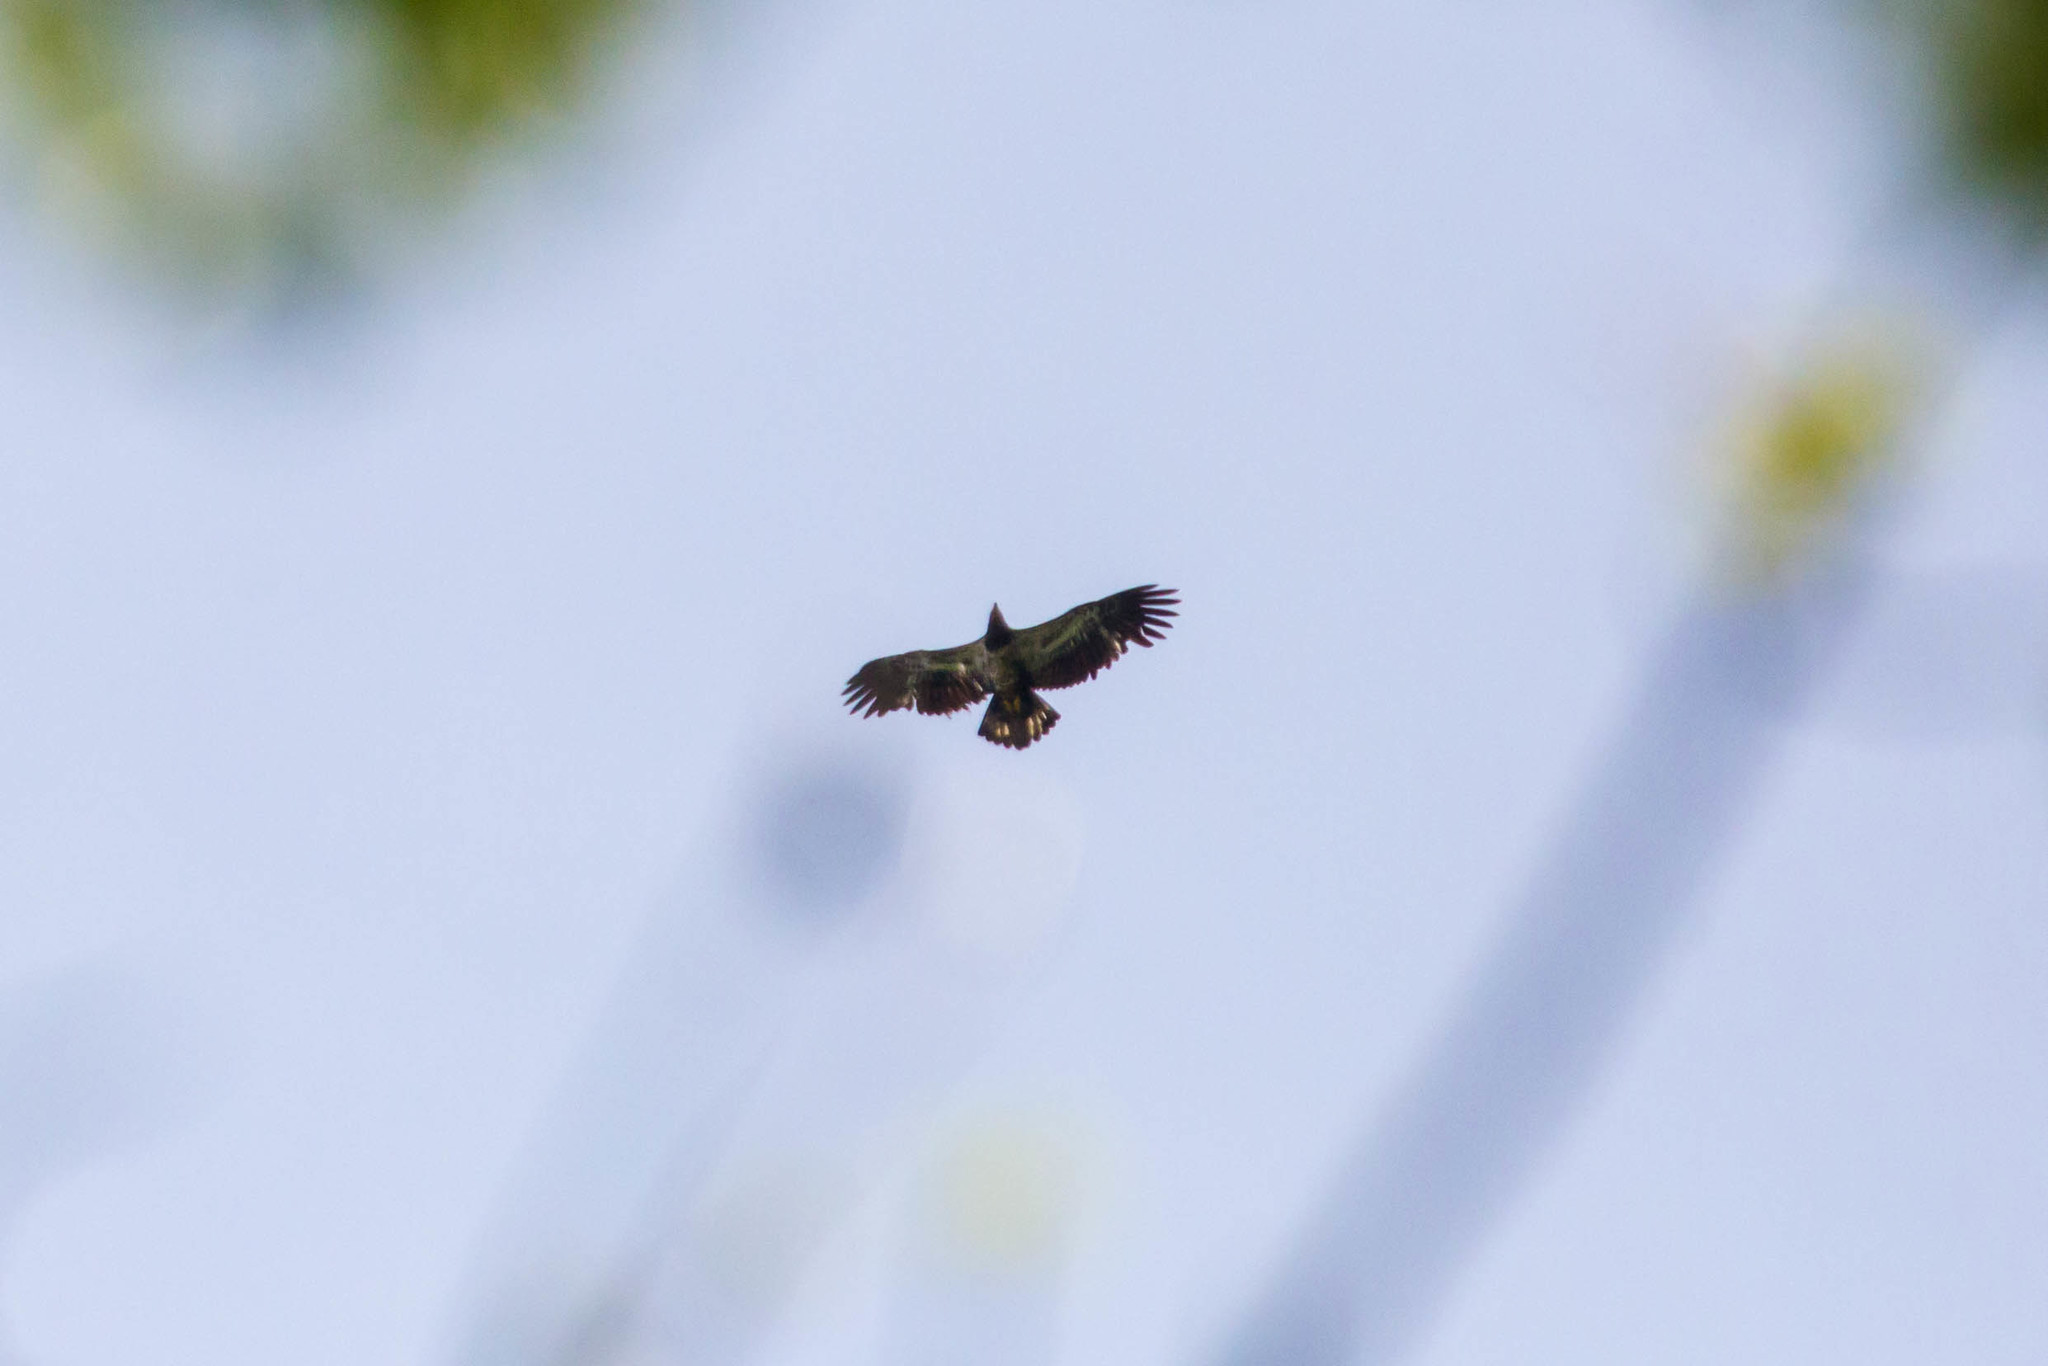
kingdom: Animalia
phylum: Chordata
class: Aves
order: Accipitriformes
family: Accipitridae
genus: Haliaeetus
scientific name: Haliaeetus leucocephalus
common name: Bald eagle
